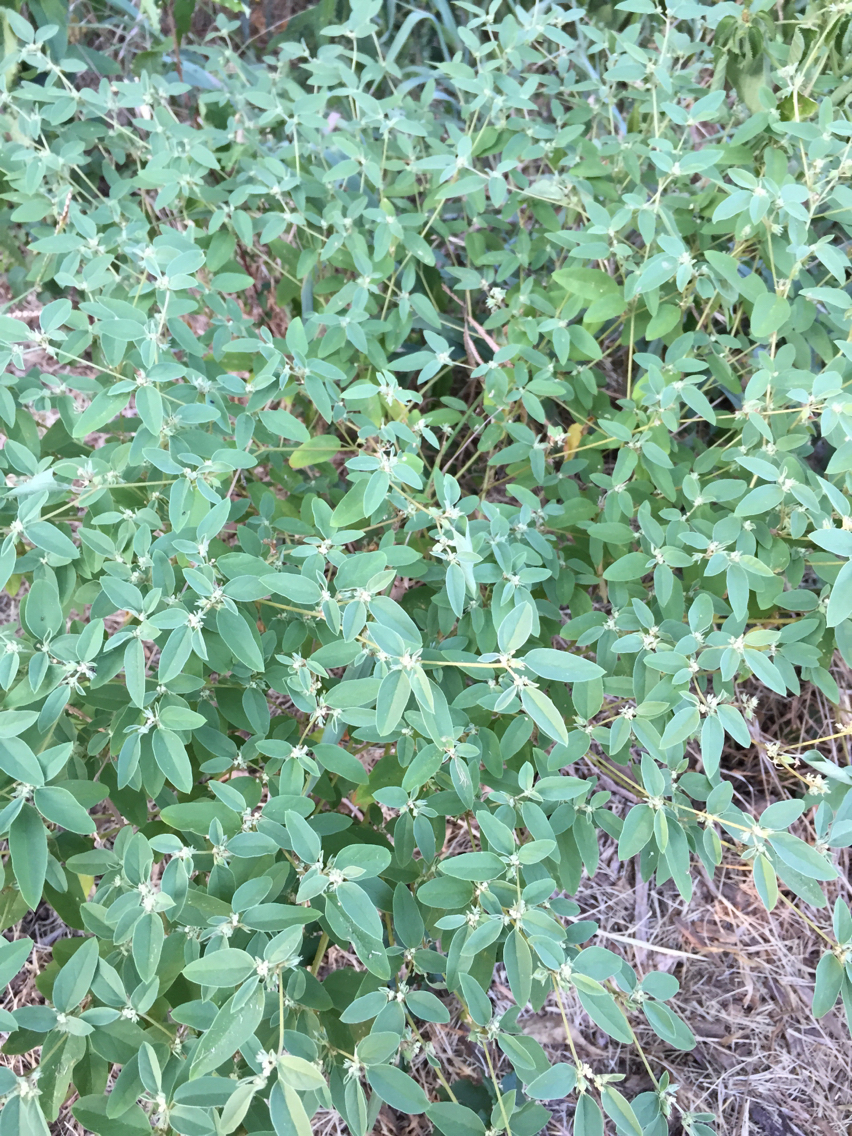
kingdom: Plantae
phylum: Tracheophyta
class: Magnoliopsida
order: Malpighiales
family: Euphorbiaceae
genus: Croton
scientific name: Croton monanthogynus
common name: One-seed croton
